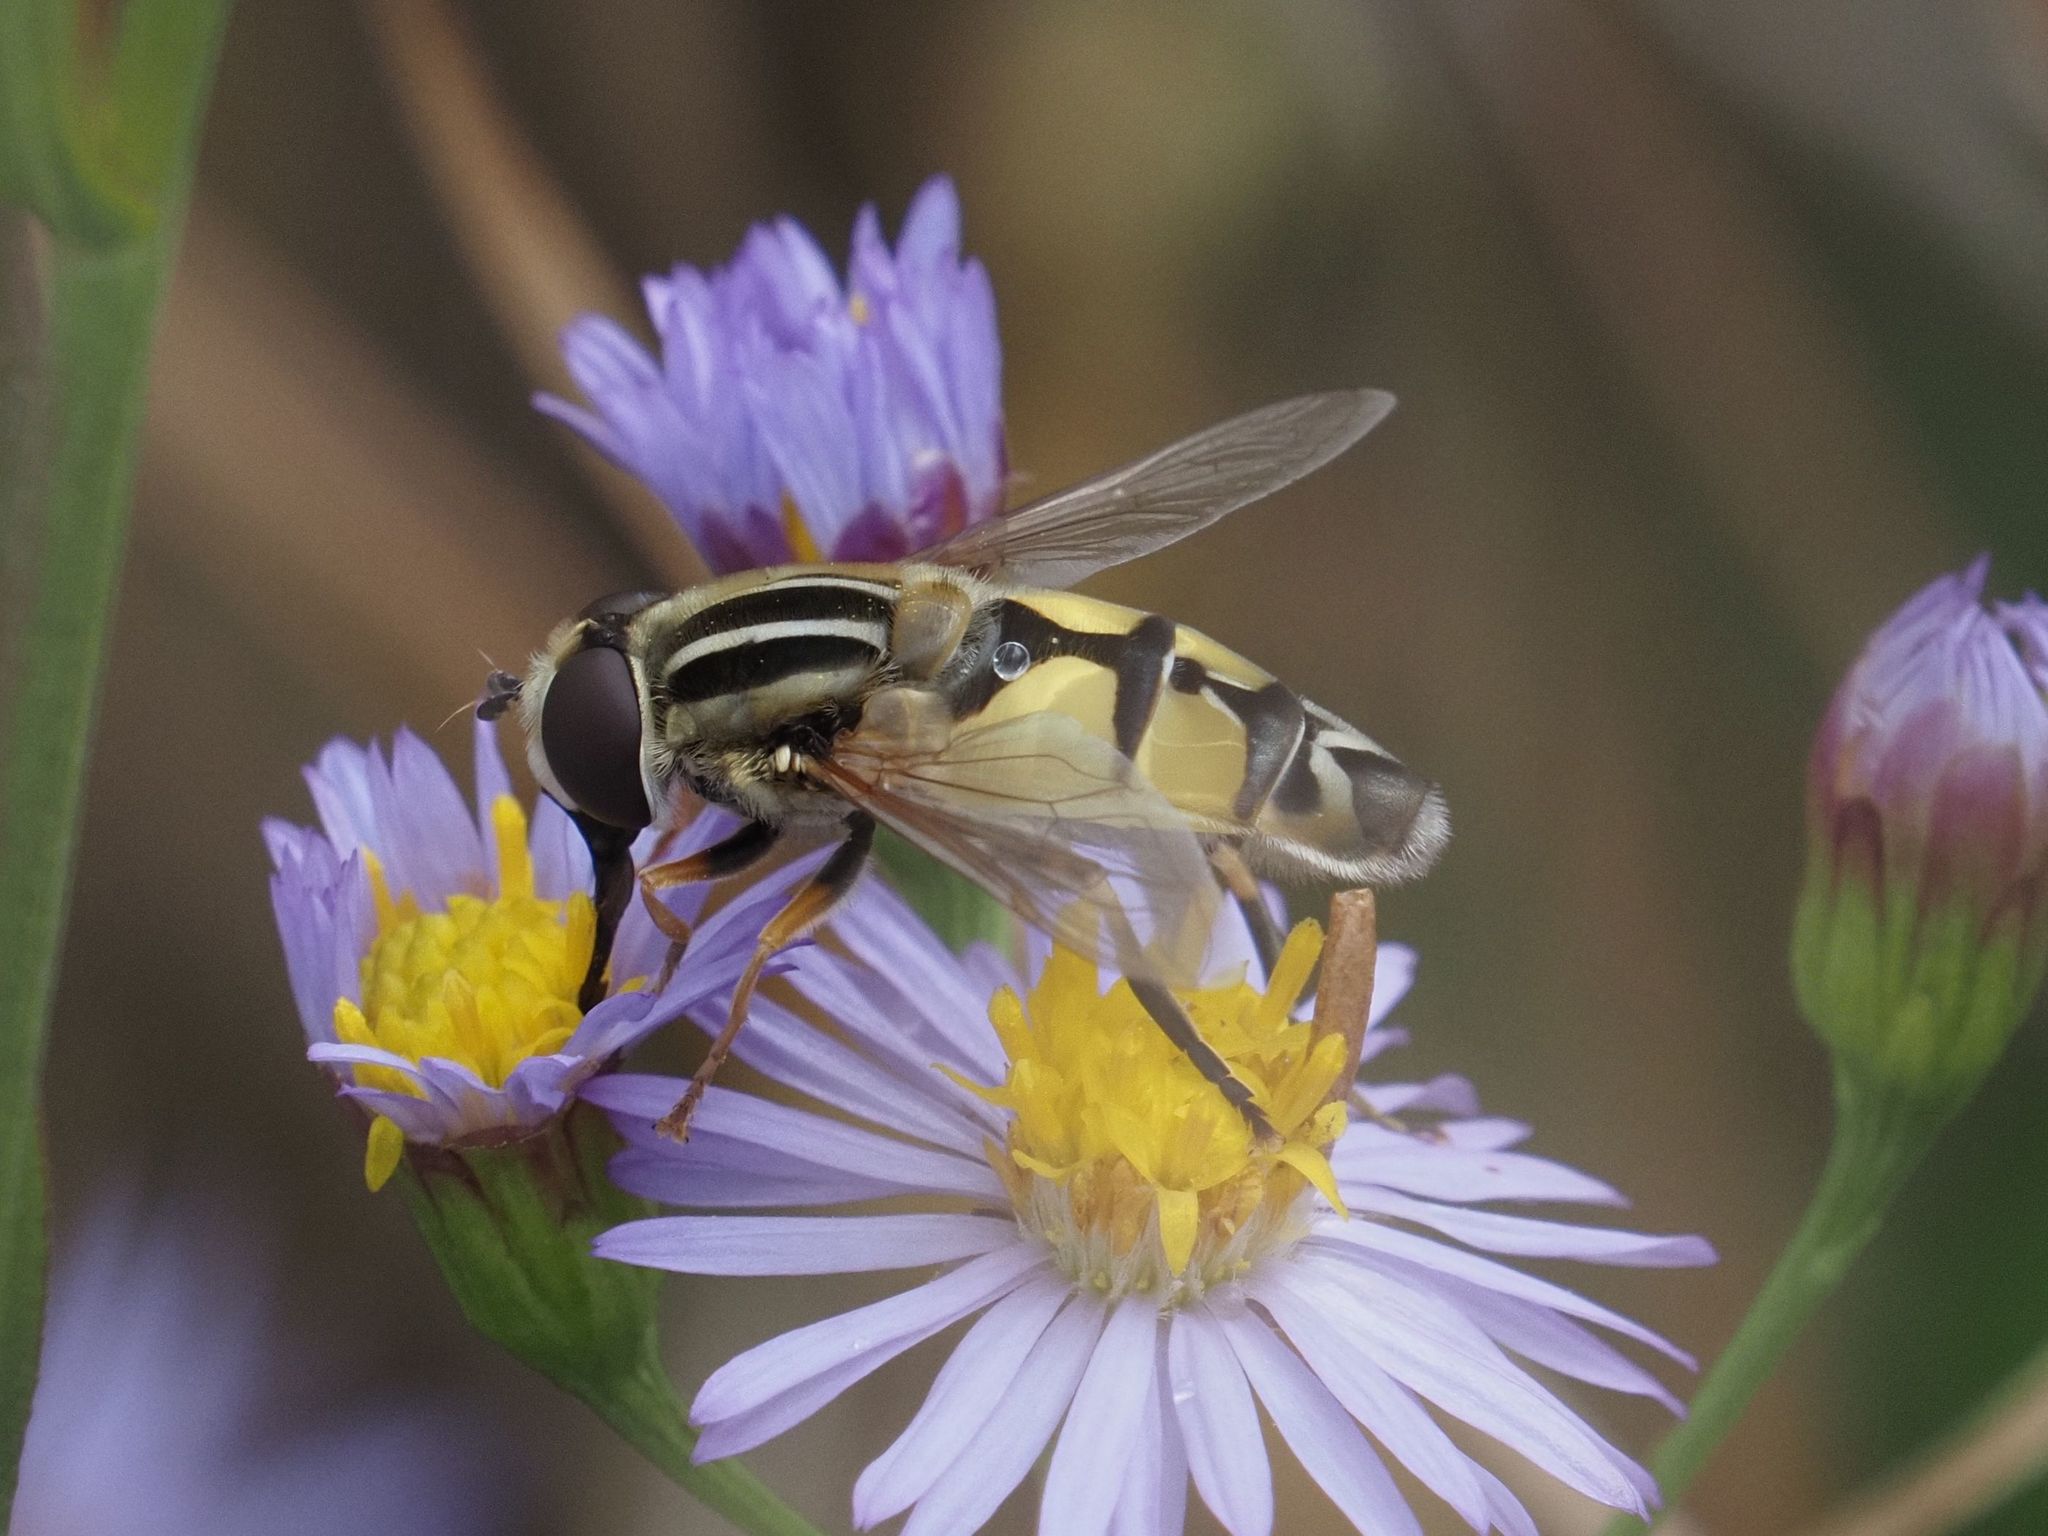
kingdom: Animalia
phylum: Arthropoda
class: Insecta
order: Diptera
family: Syrphidae
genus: Helophilus
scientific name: Helophilus trivittatus
